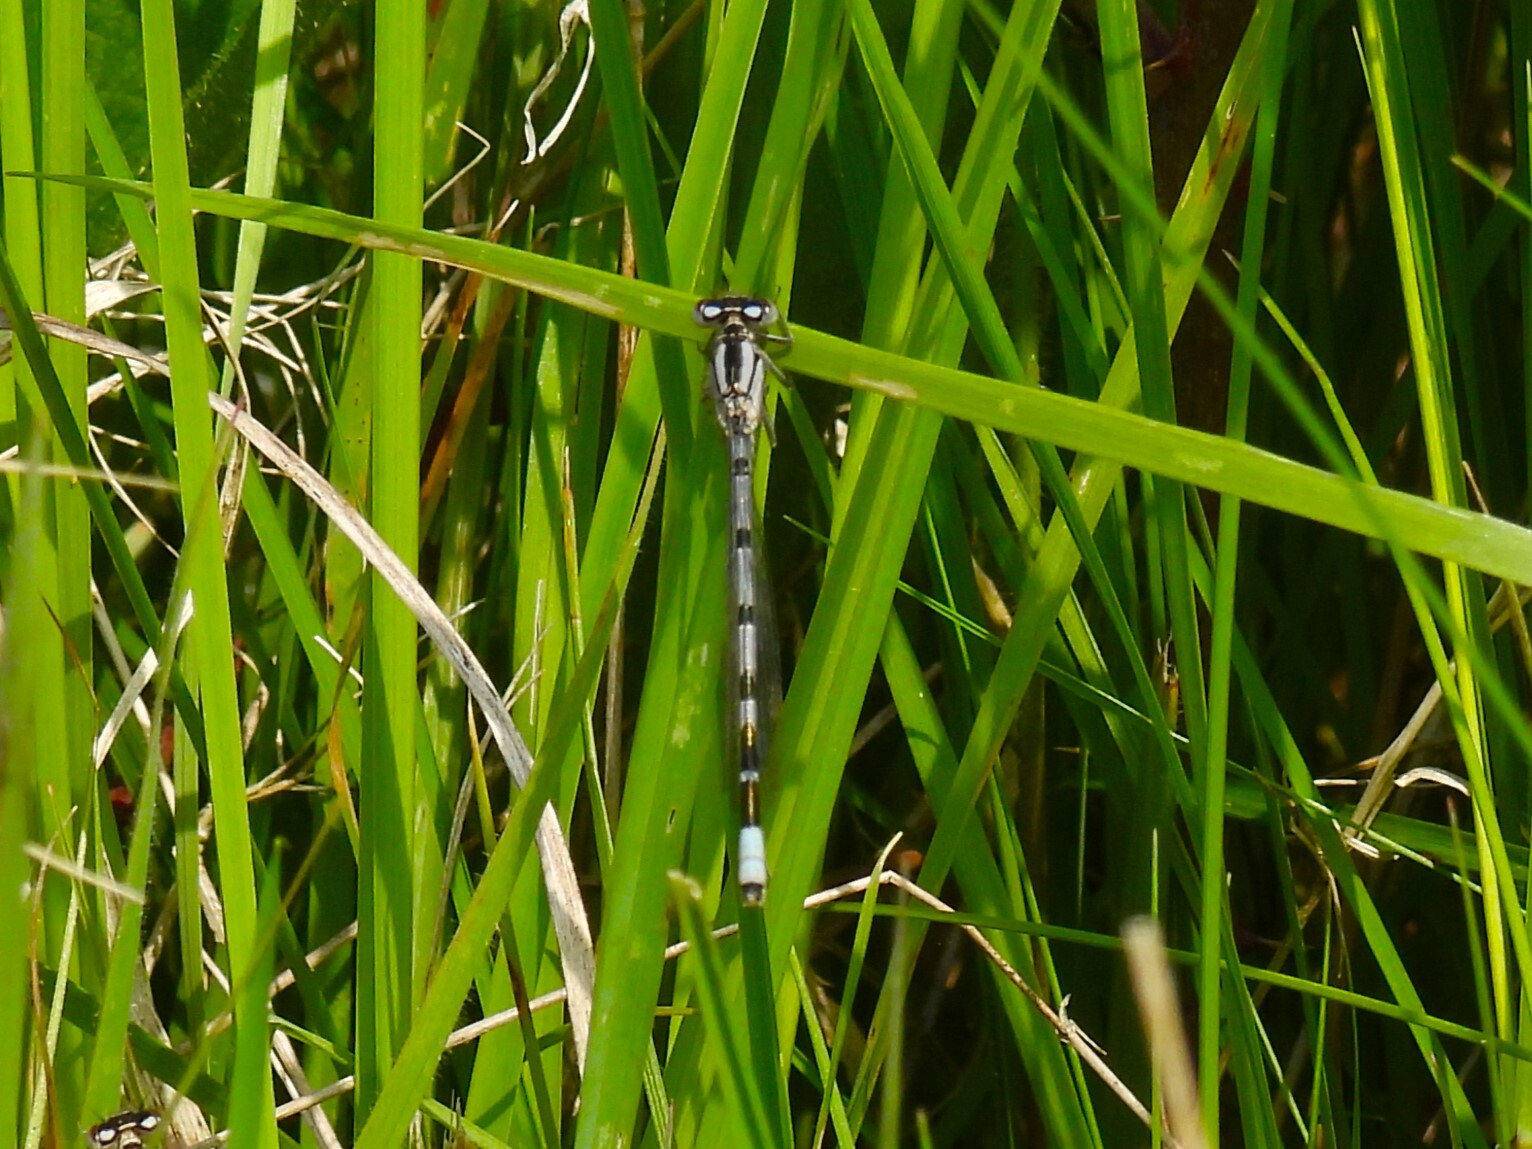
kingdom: Animalia
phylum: Arthropoda
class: Insecta
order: Odonata
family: Coenagrionidae
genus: Enallagma
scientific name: Enallagma cyathigerum
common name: Common blue damselfly
